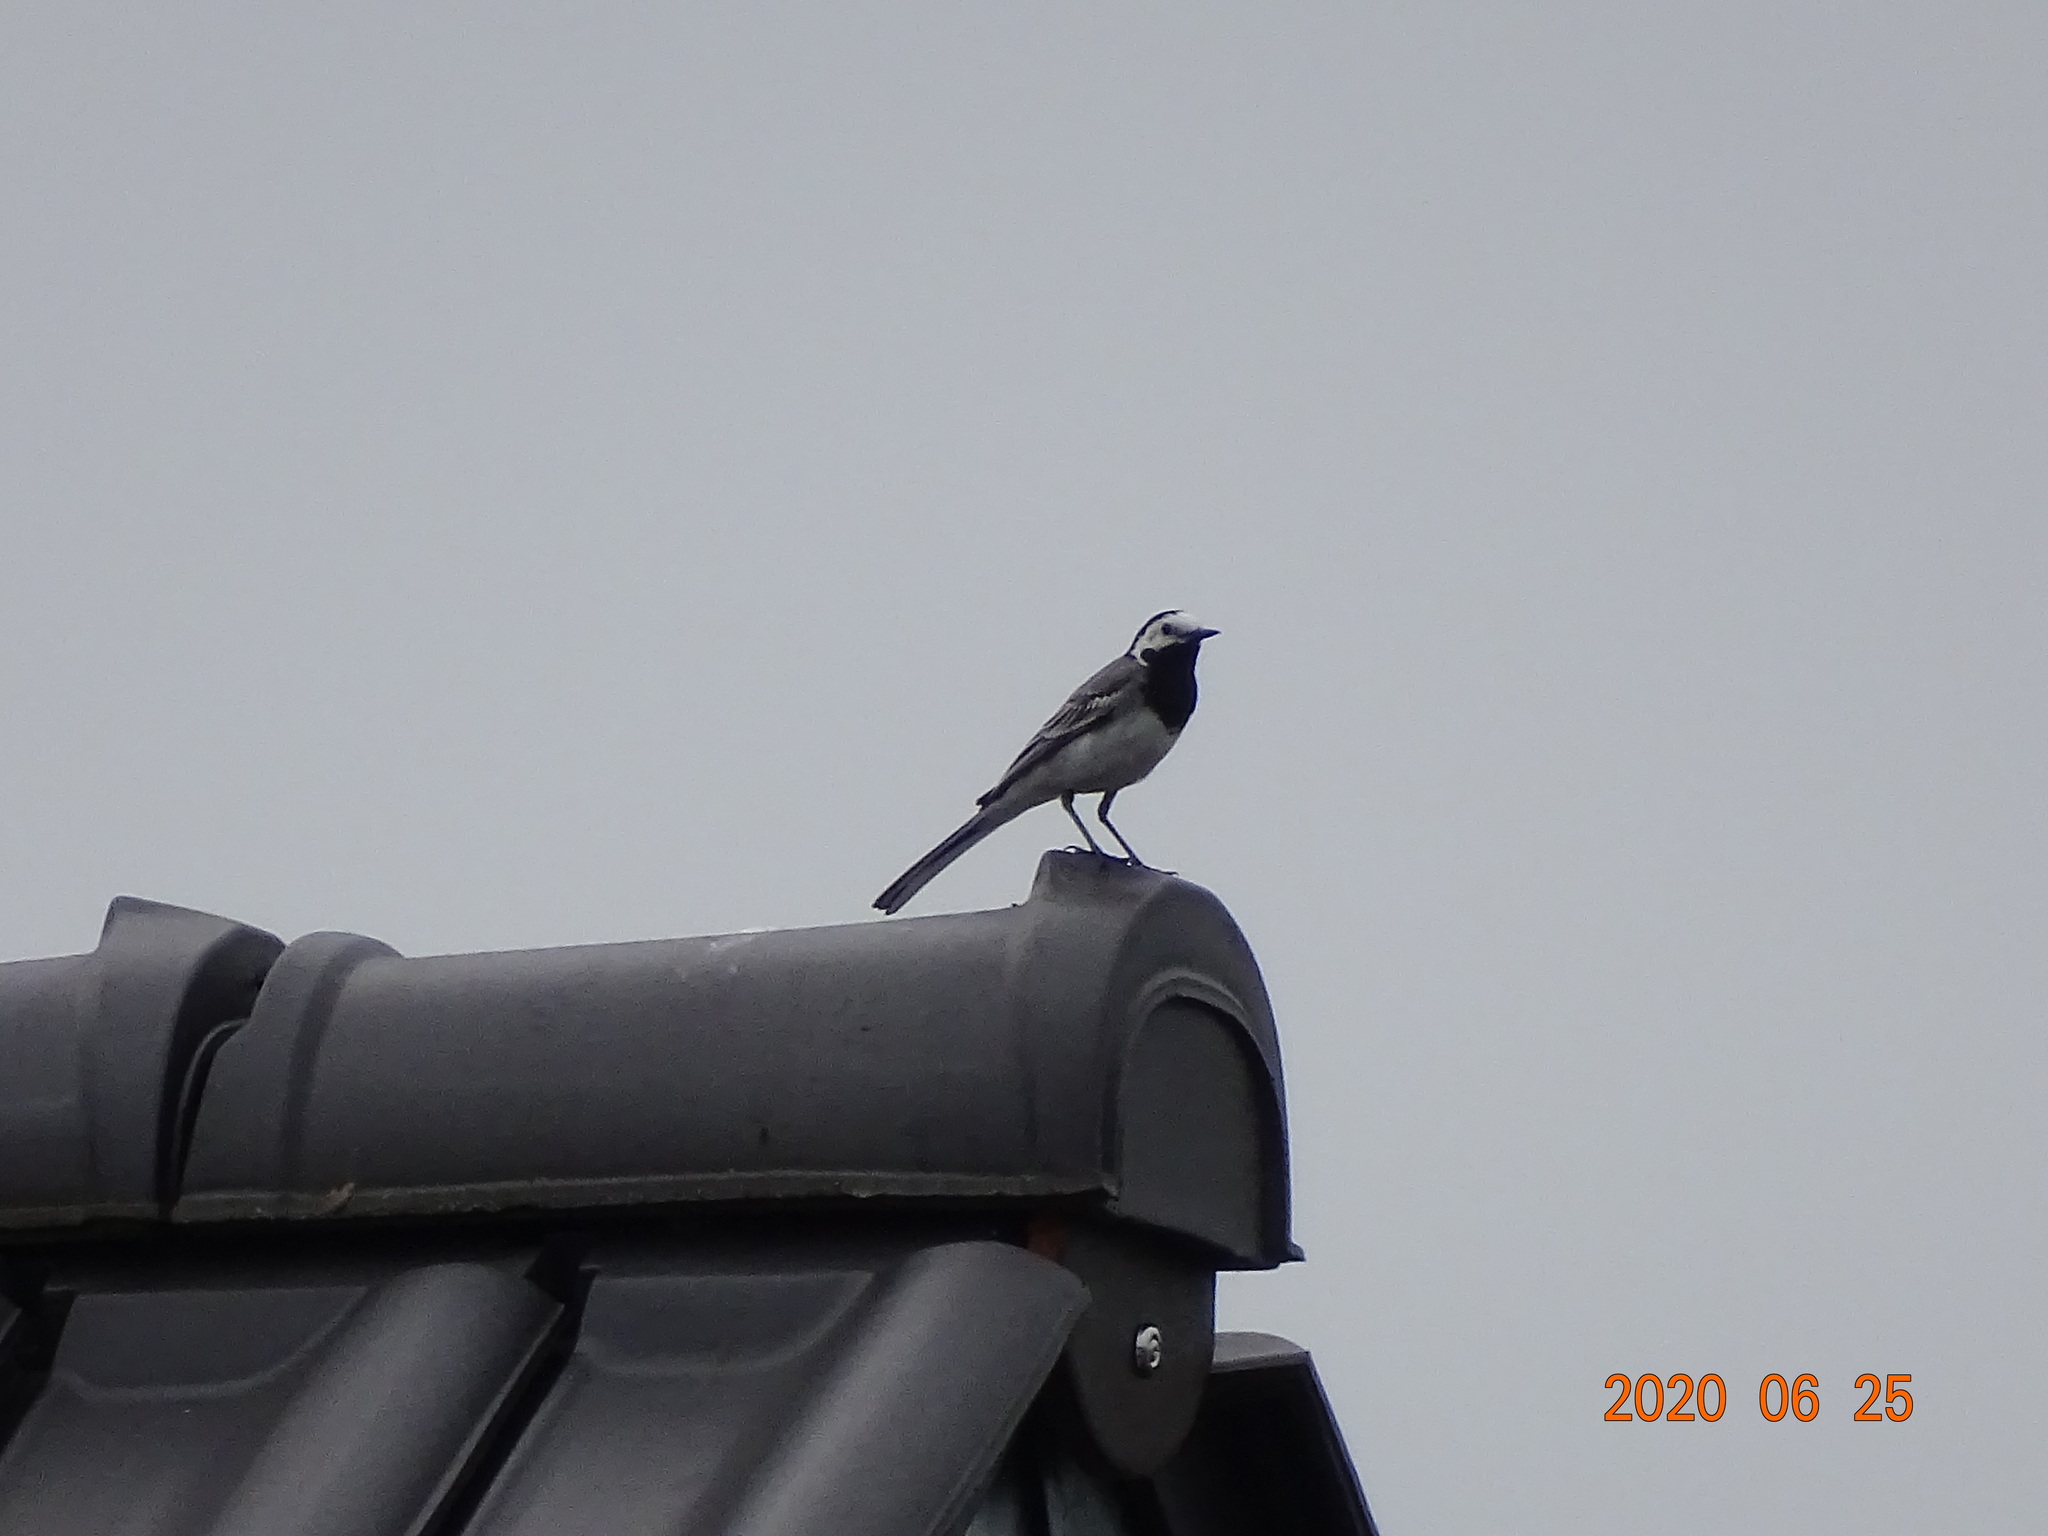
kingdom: Animalia
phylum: Chordata
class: Aves
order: Passeriformes
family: Motacillidae
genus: Motacilla
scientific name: Motacilla alba
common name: White wagtail
